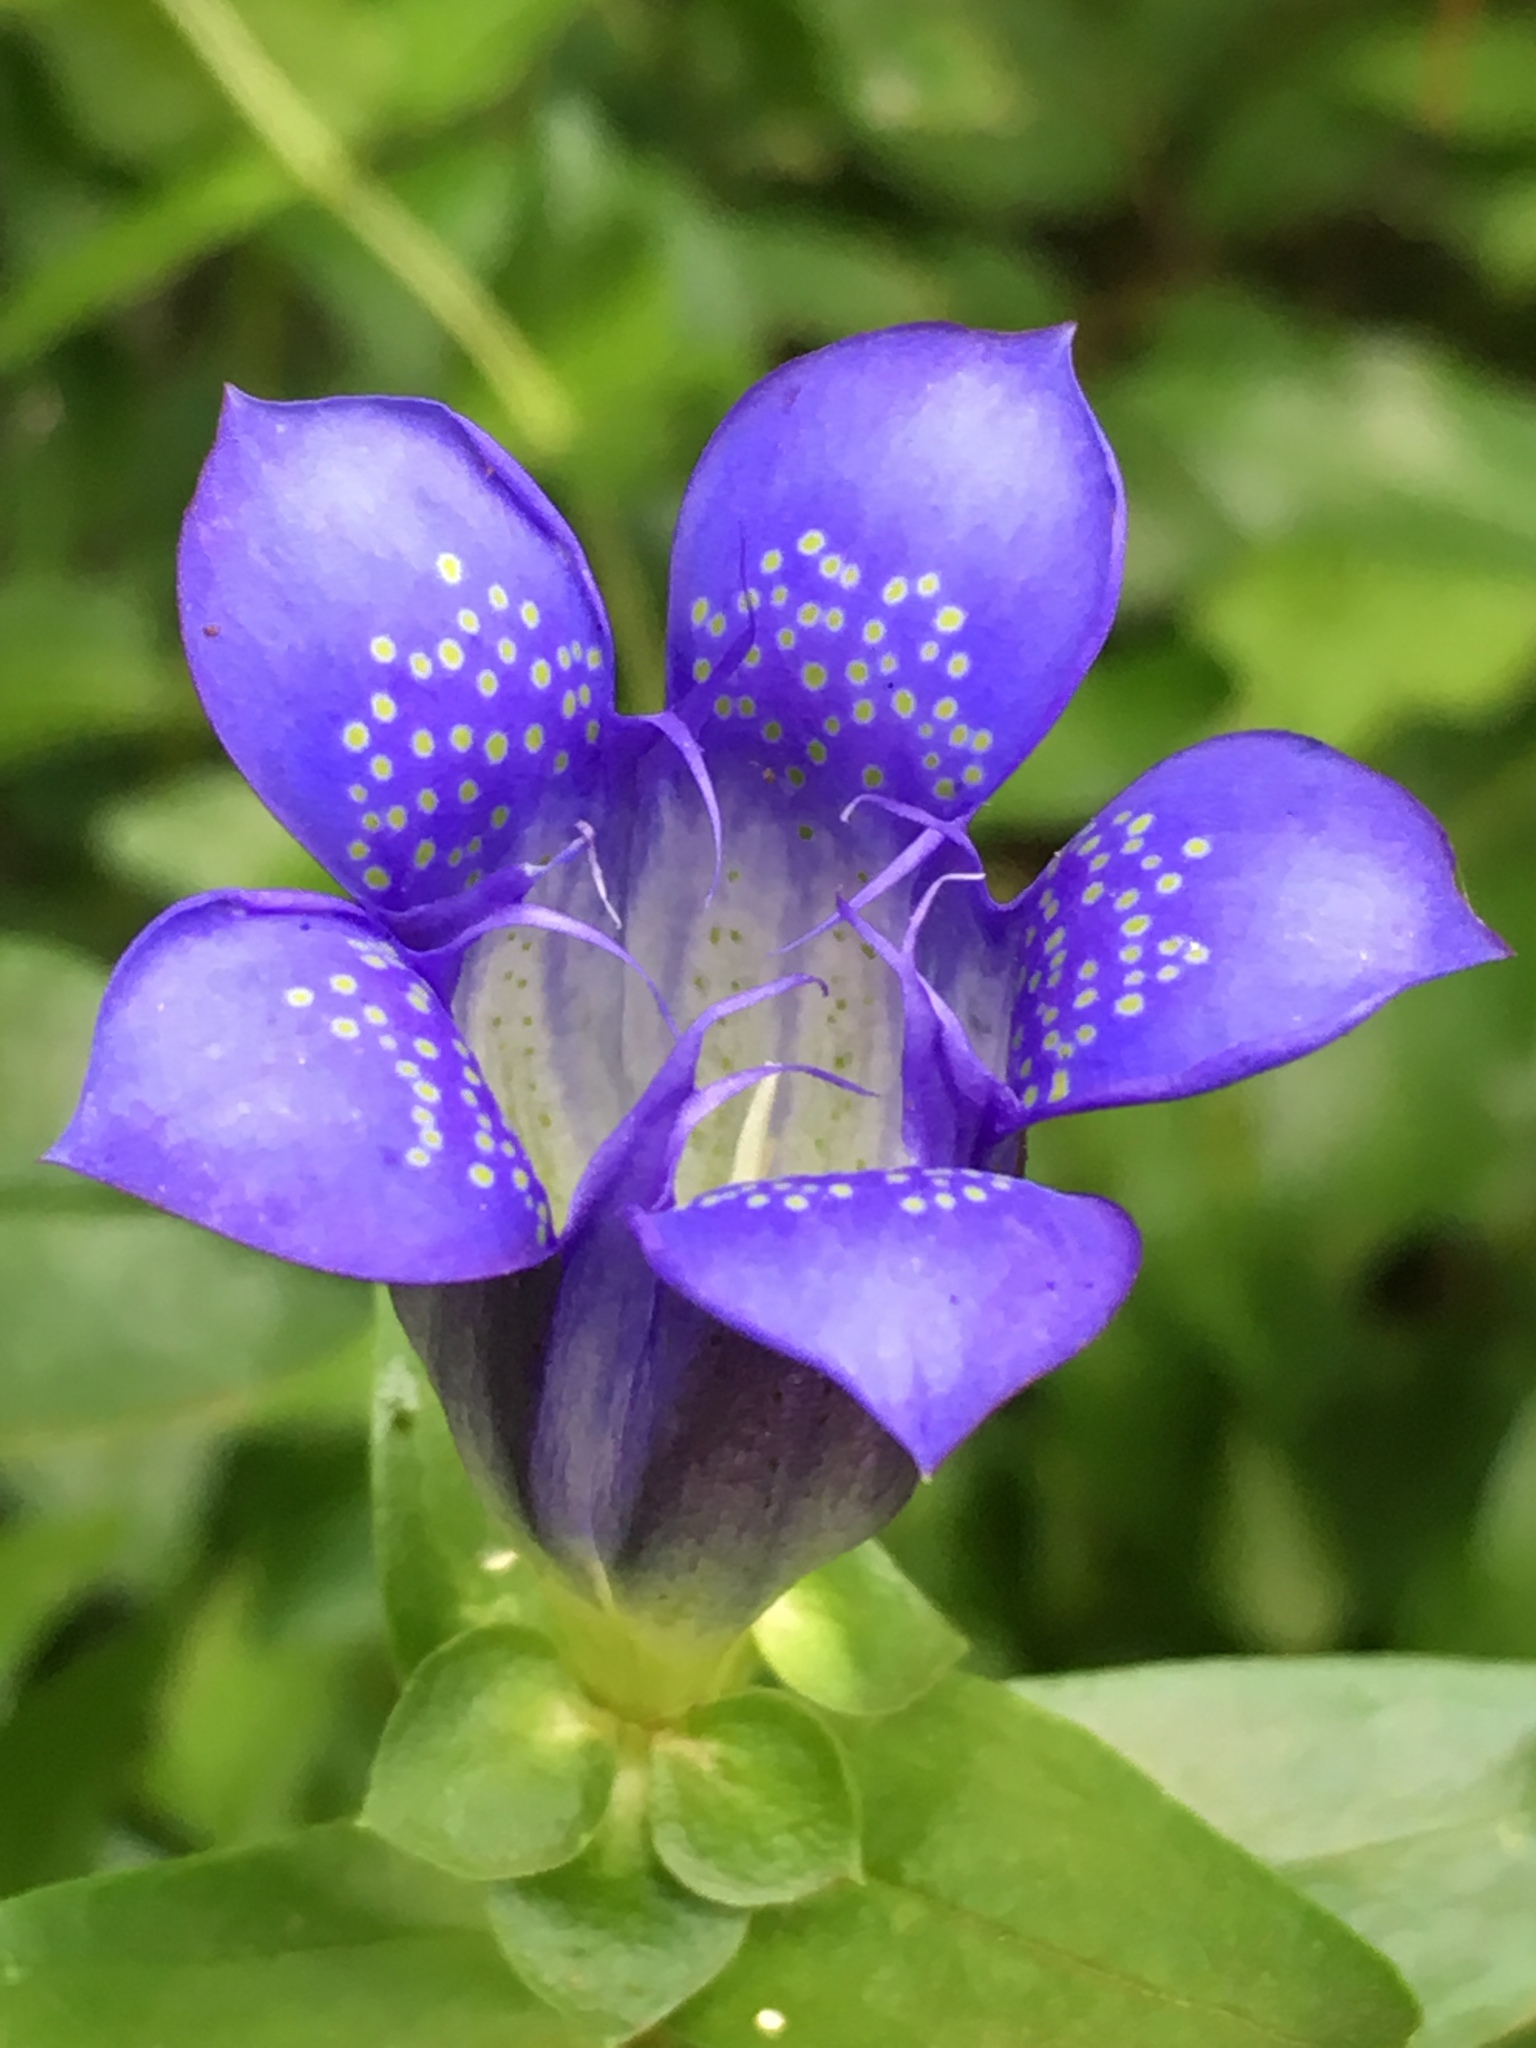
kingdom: Plantae
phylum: Tracheophyta
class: Magnoliopsida
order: Gentianales
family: Gentianaceae
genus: Gentiana
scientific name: Gentiana calycosa
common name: Rainier pleated gentian
